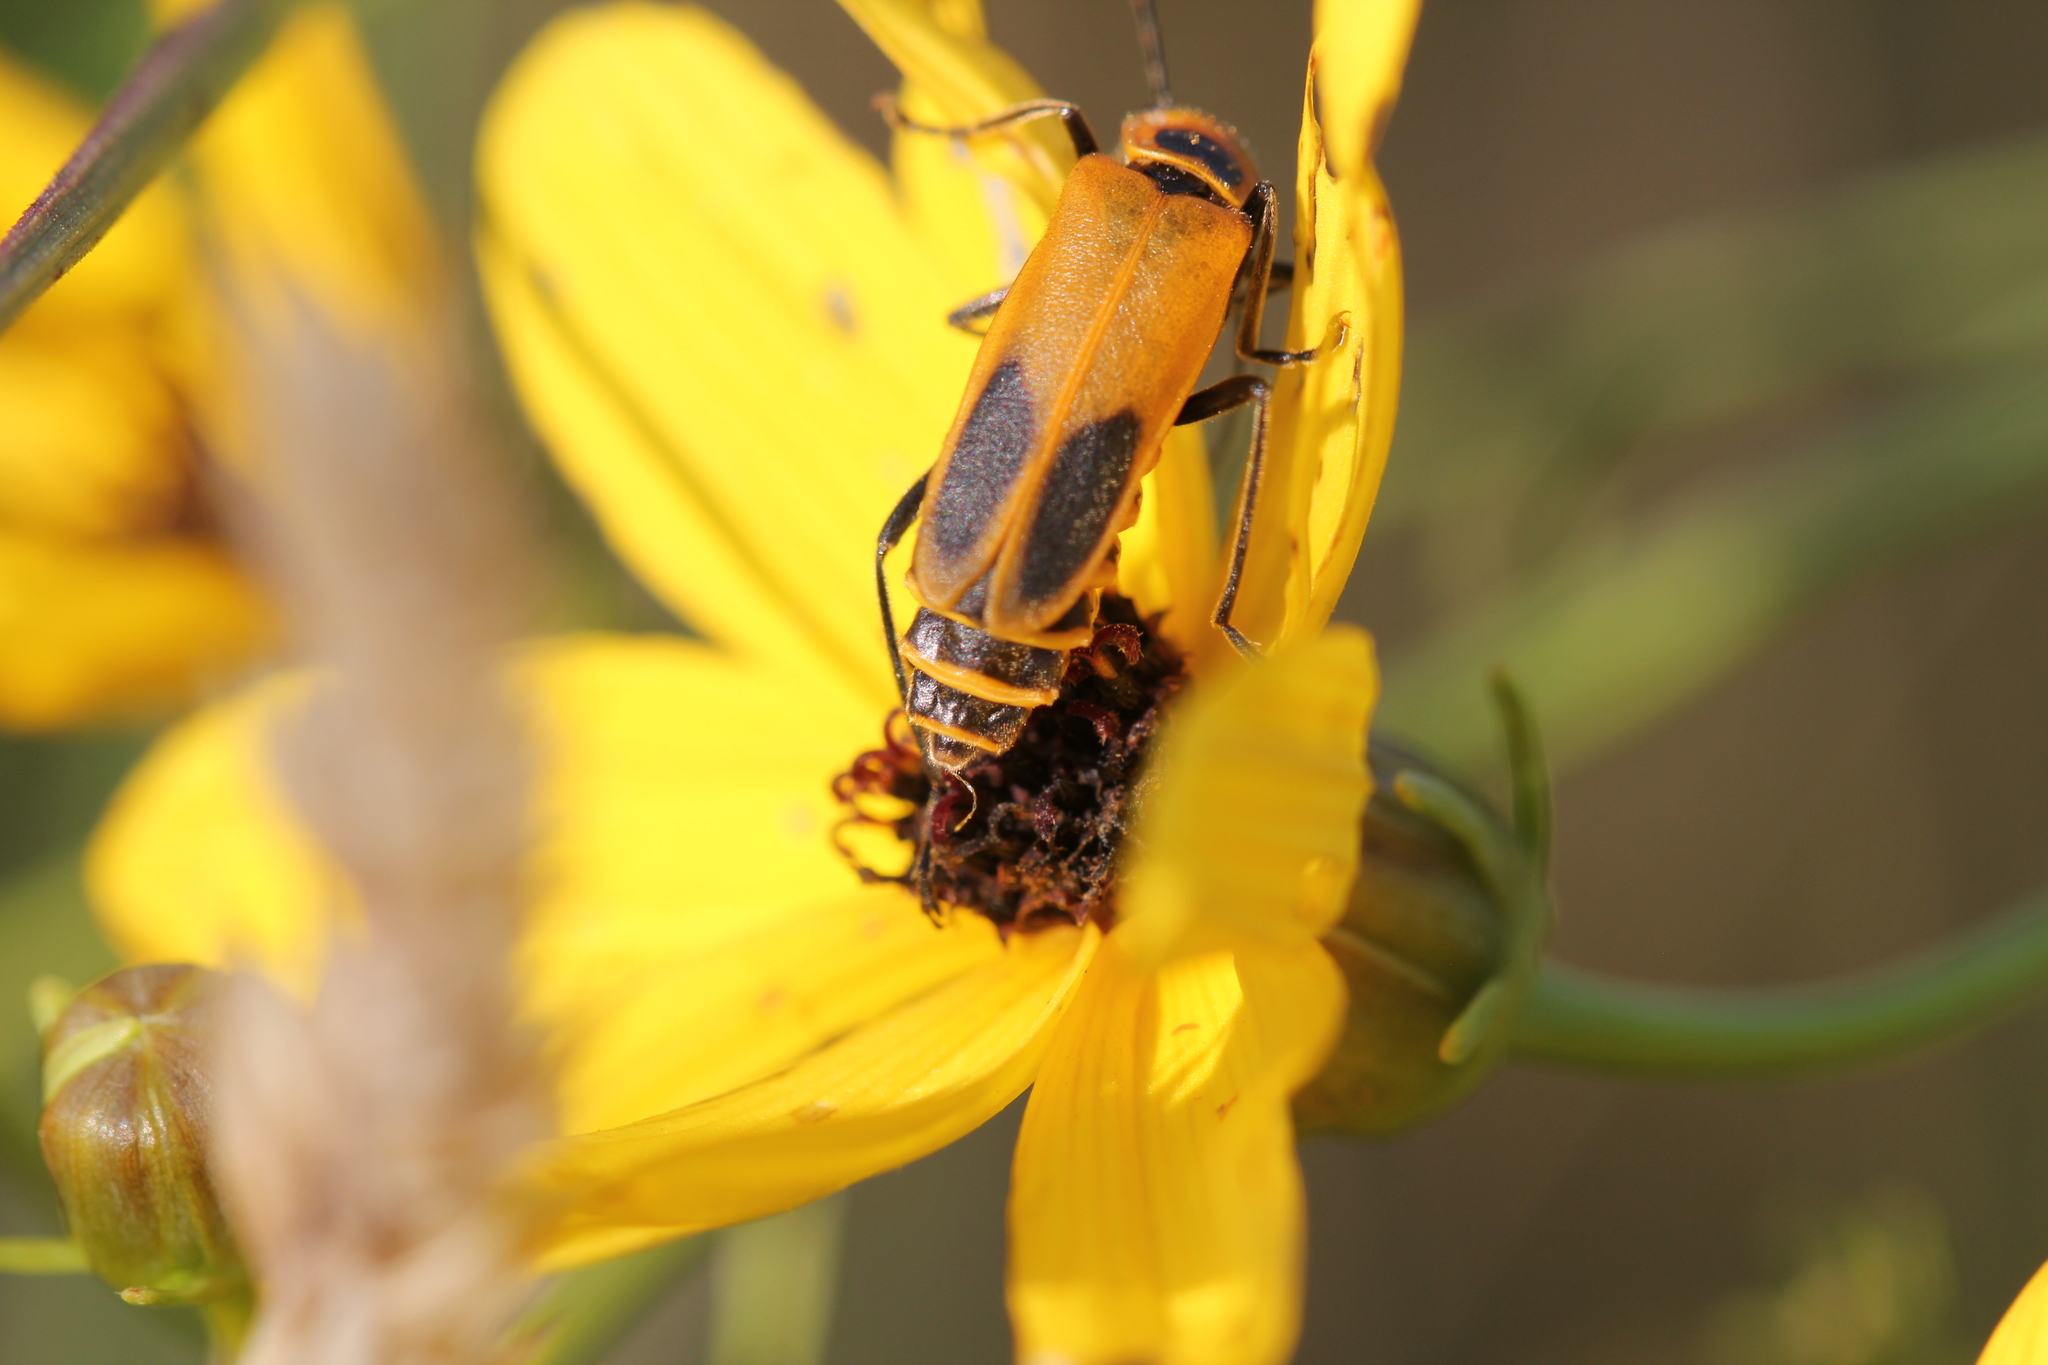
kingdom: Animalia
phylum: Arthropoda
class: Insecta
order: Coleoptera
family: Cantharidae
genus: Chauliognathus
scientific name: Chauliognathus pensylvanicus
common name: Goldenrod soldier beetle
